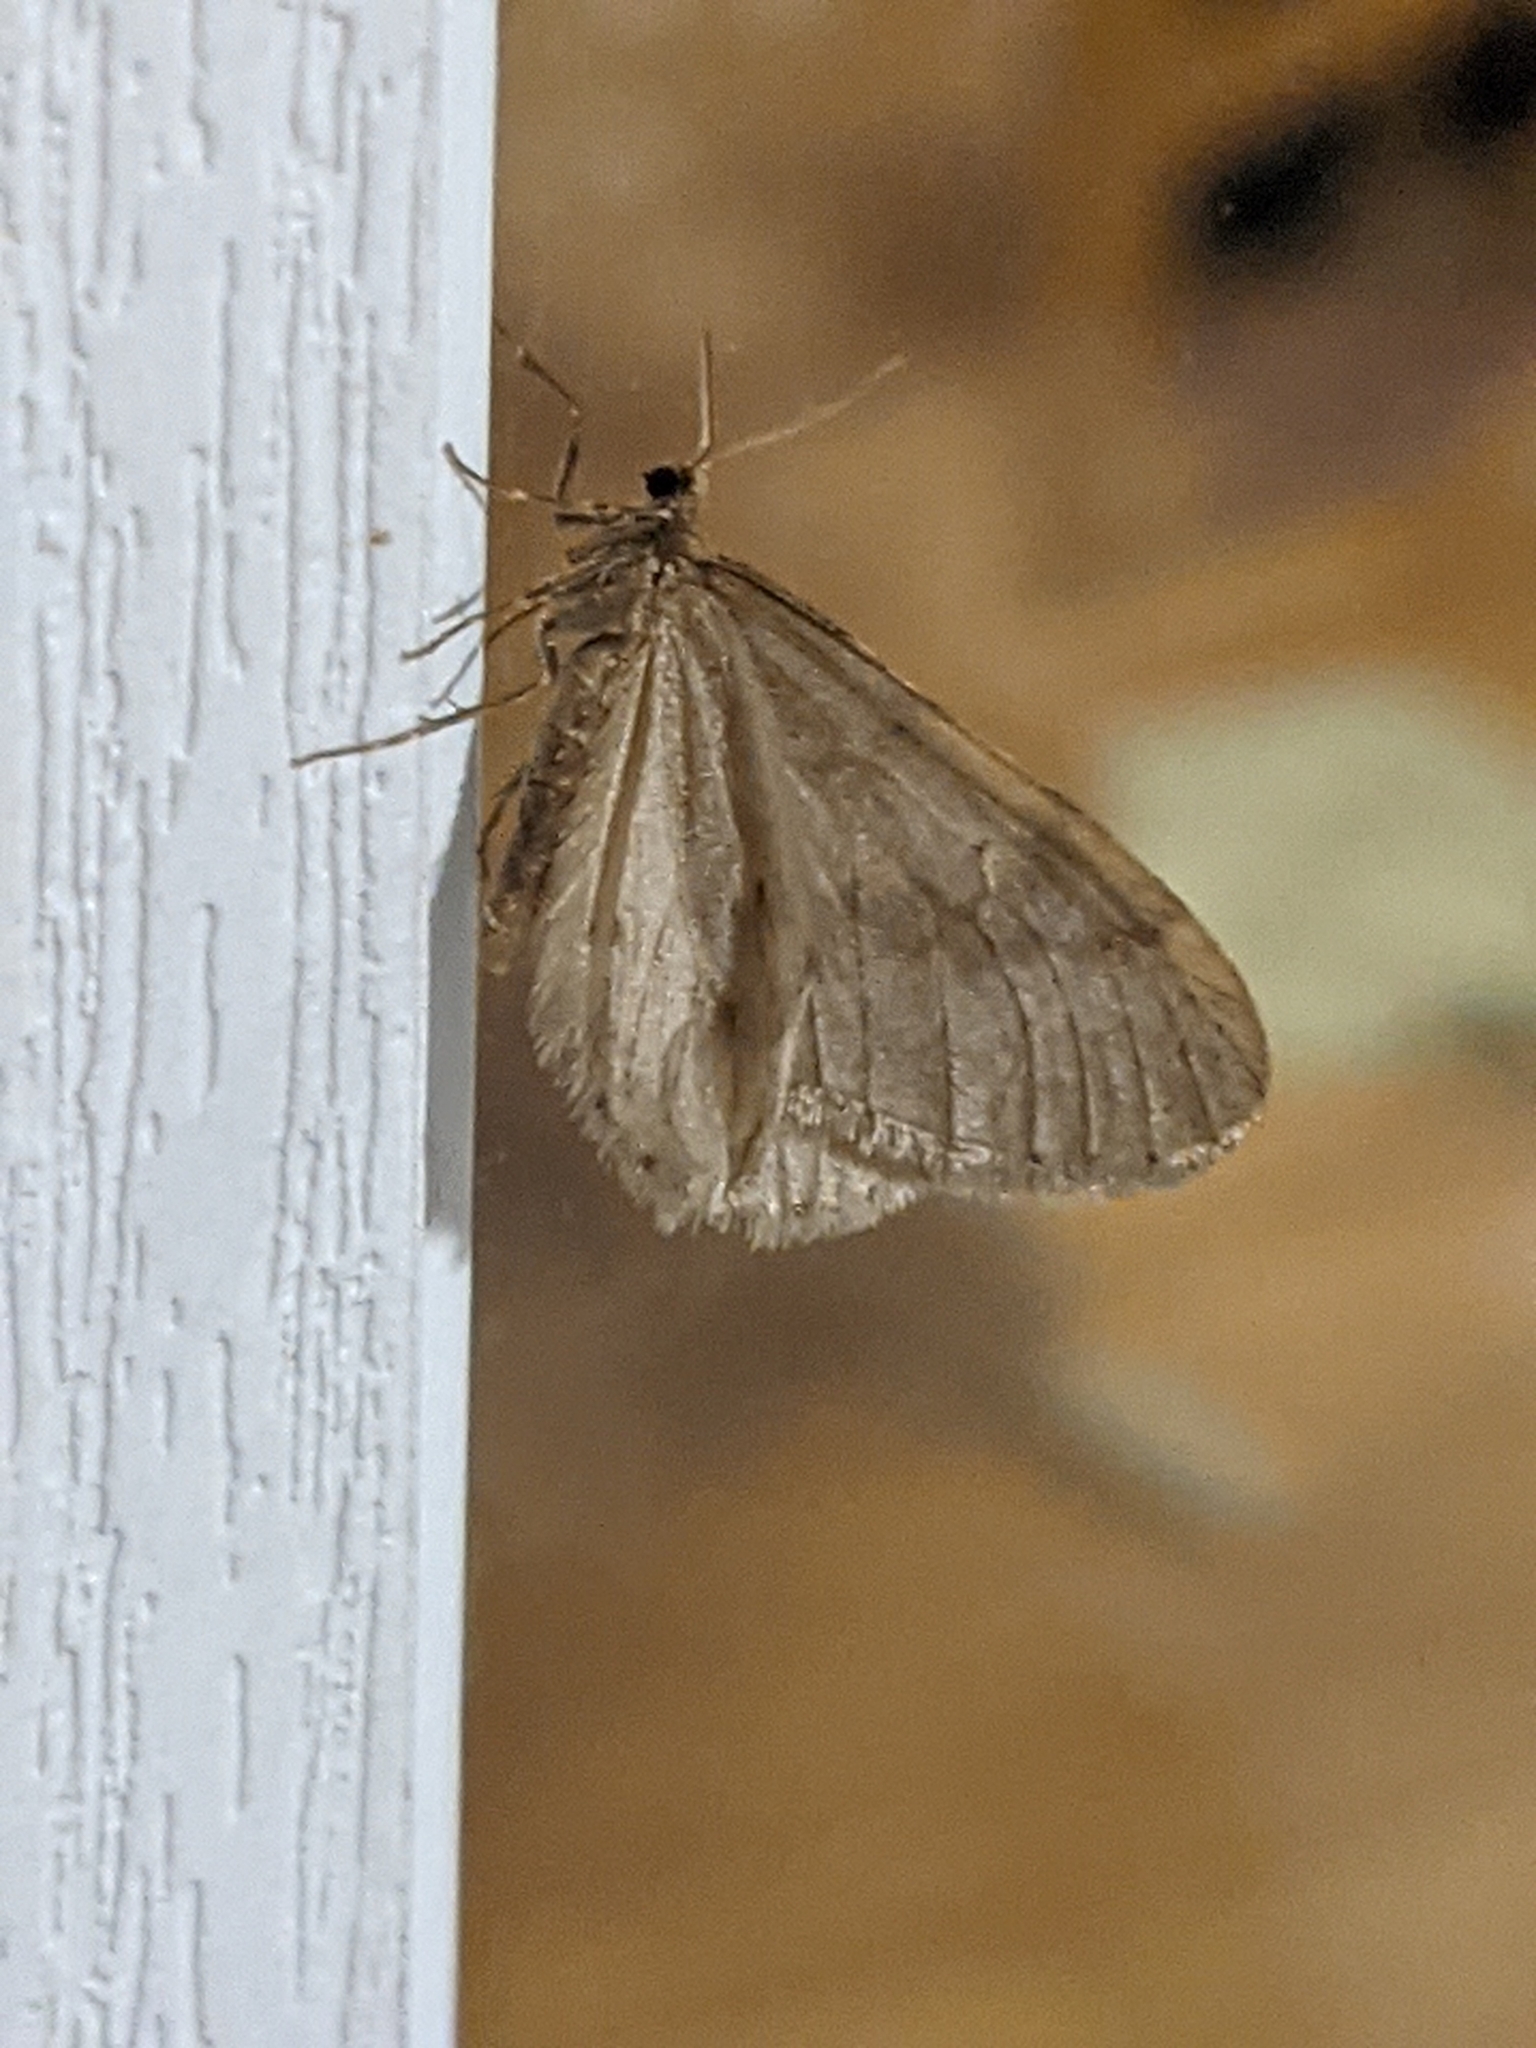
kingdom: Animalia
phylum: Arthropoda
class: Insecta
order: Lepidoptera
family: Geometridae
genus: Operophtera
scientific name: Operophtera bruceata
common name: Bruce spanworm
